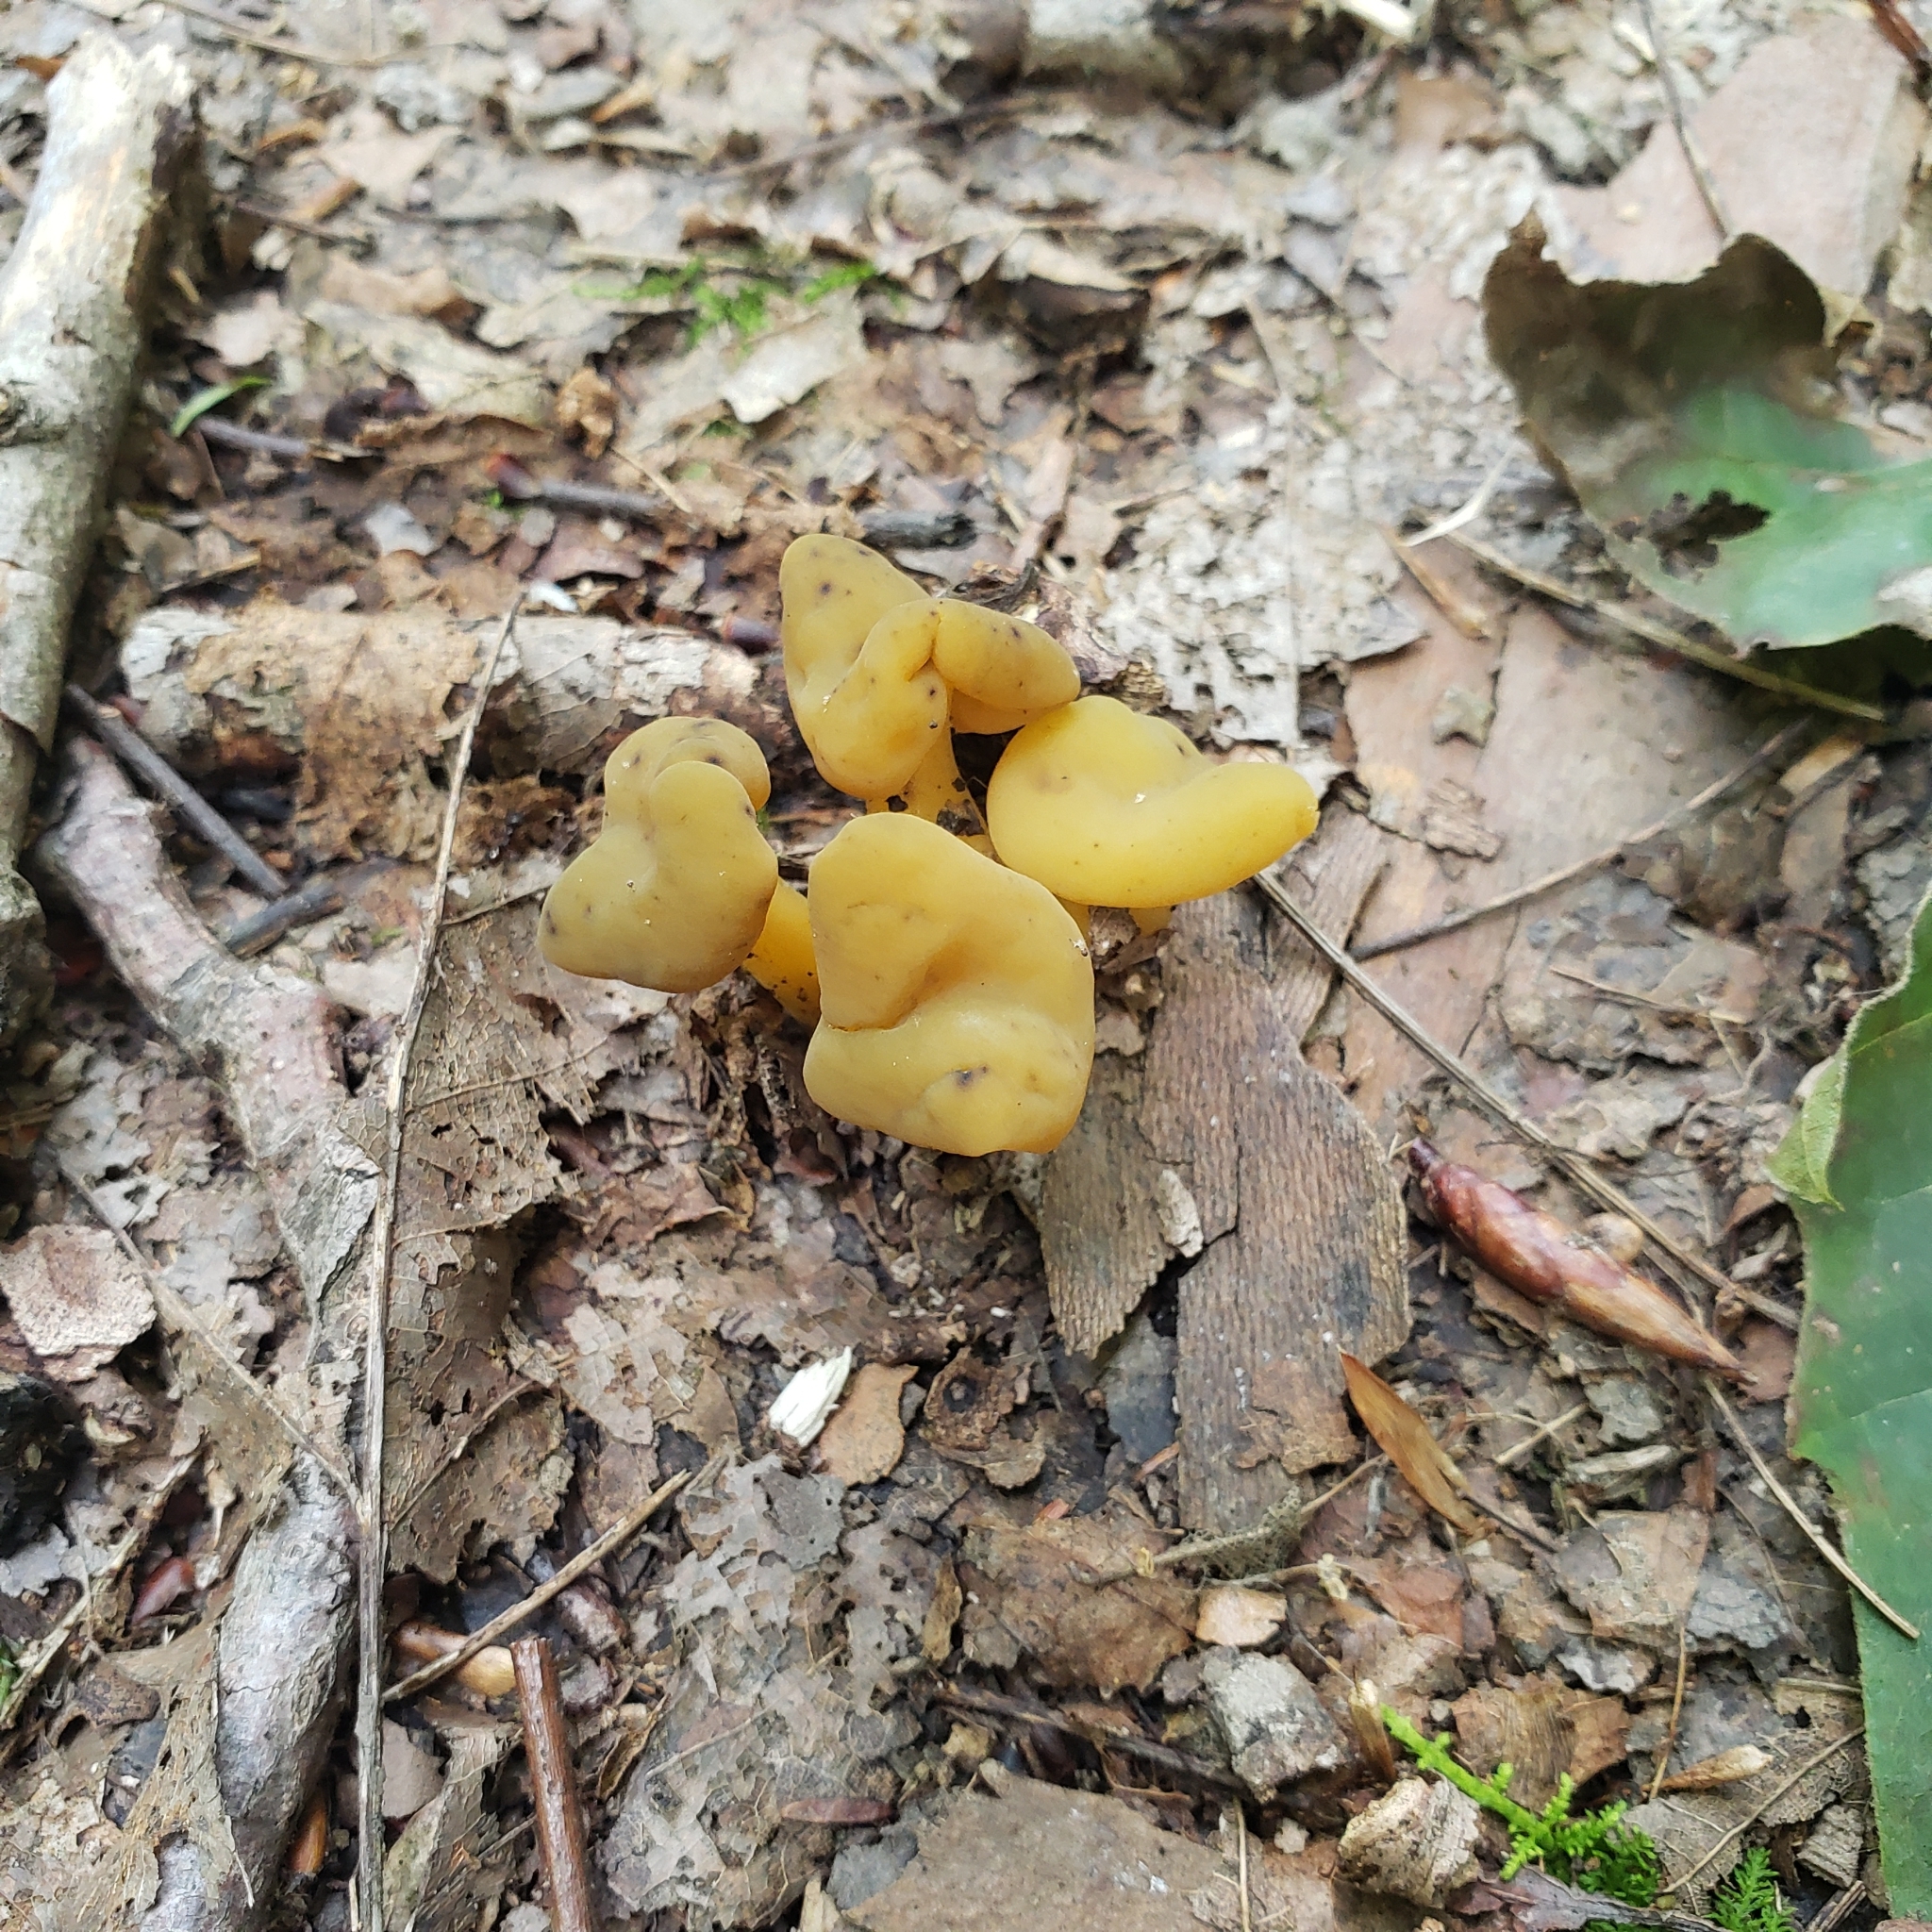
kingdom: Fungi
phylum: Ascomycota
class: Leotiomycetes
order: Leotiales
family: Leotiaceae
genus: Leotia
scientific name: Leotia lubrica
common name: Jellybaby
